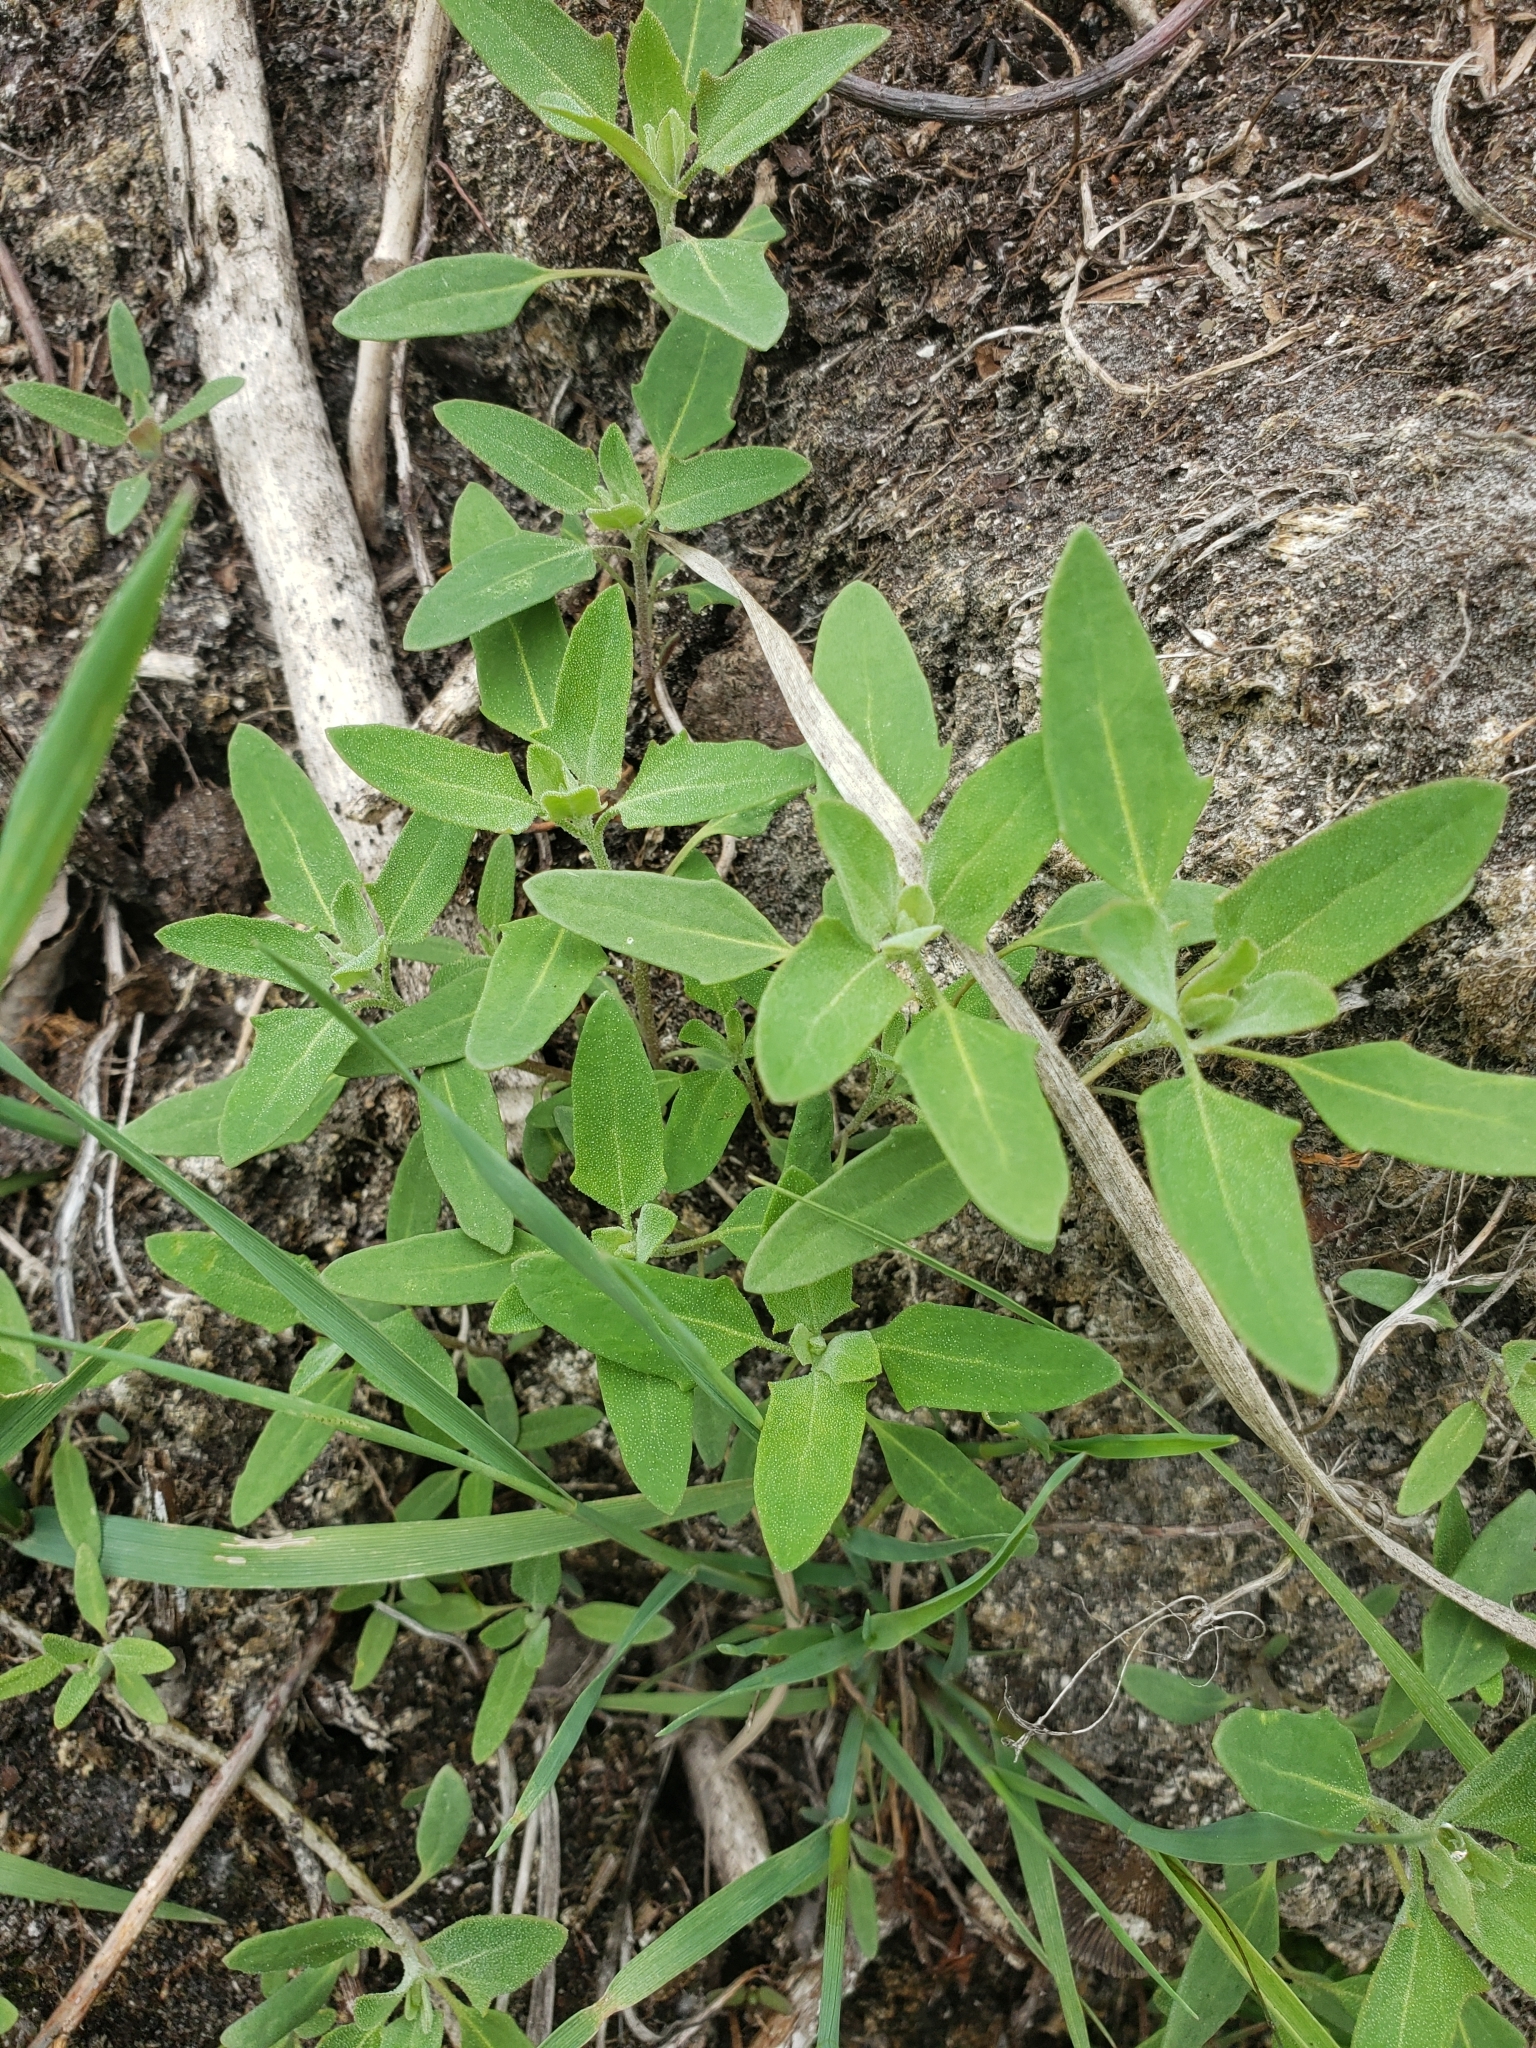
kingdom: Plantae
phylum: Tracheophyta
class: Magnoliopsida
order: Caryophyllales
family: Amaranthaceae
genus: Chenopodium
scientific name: Chenopodium album
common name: Fat-hen
